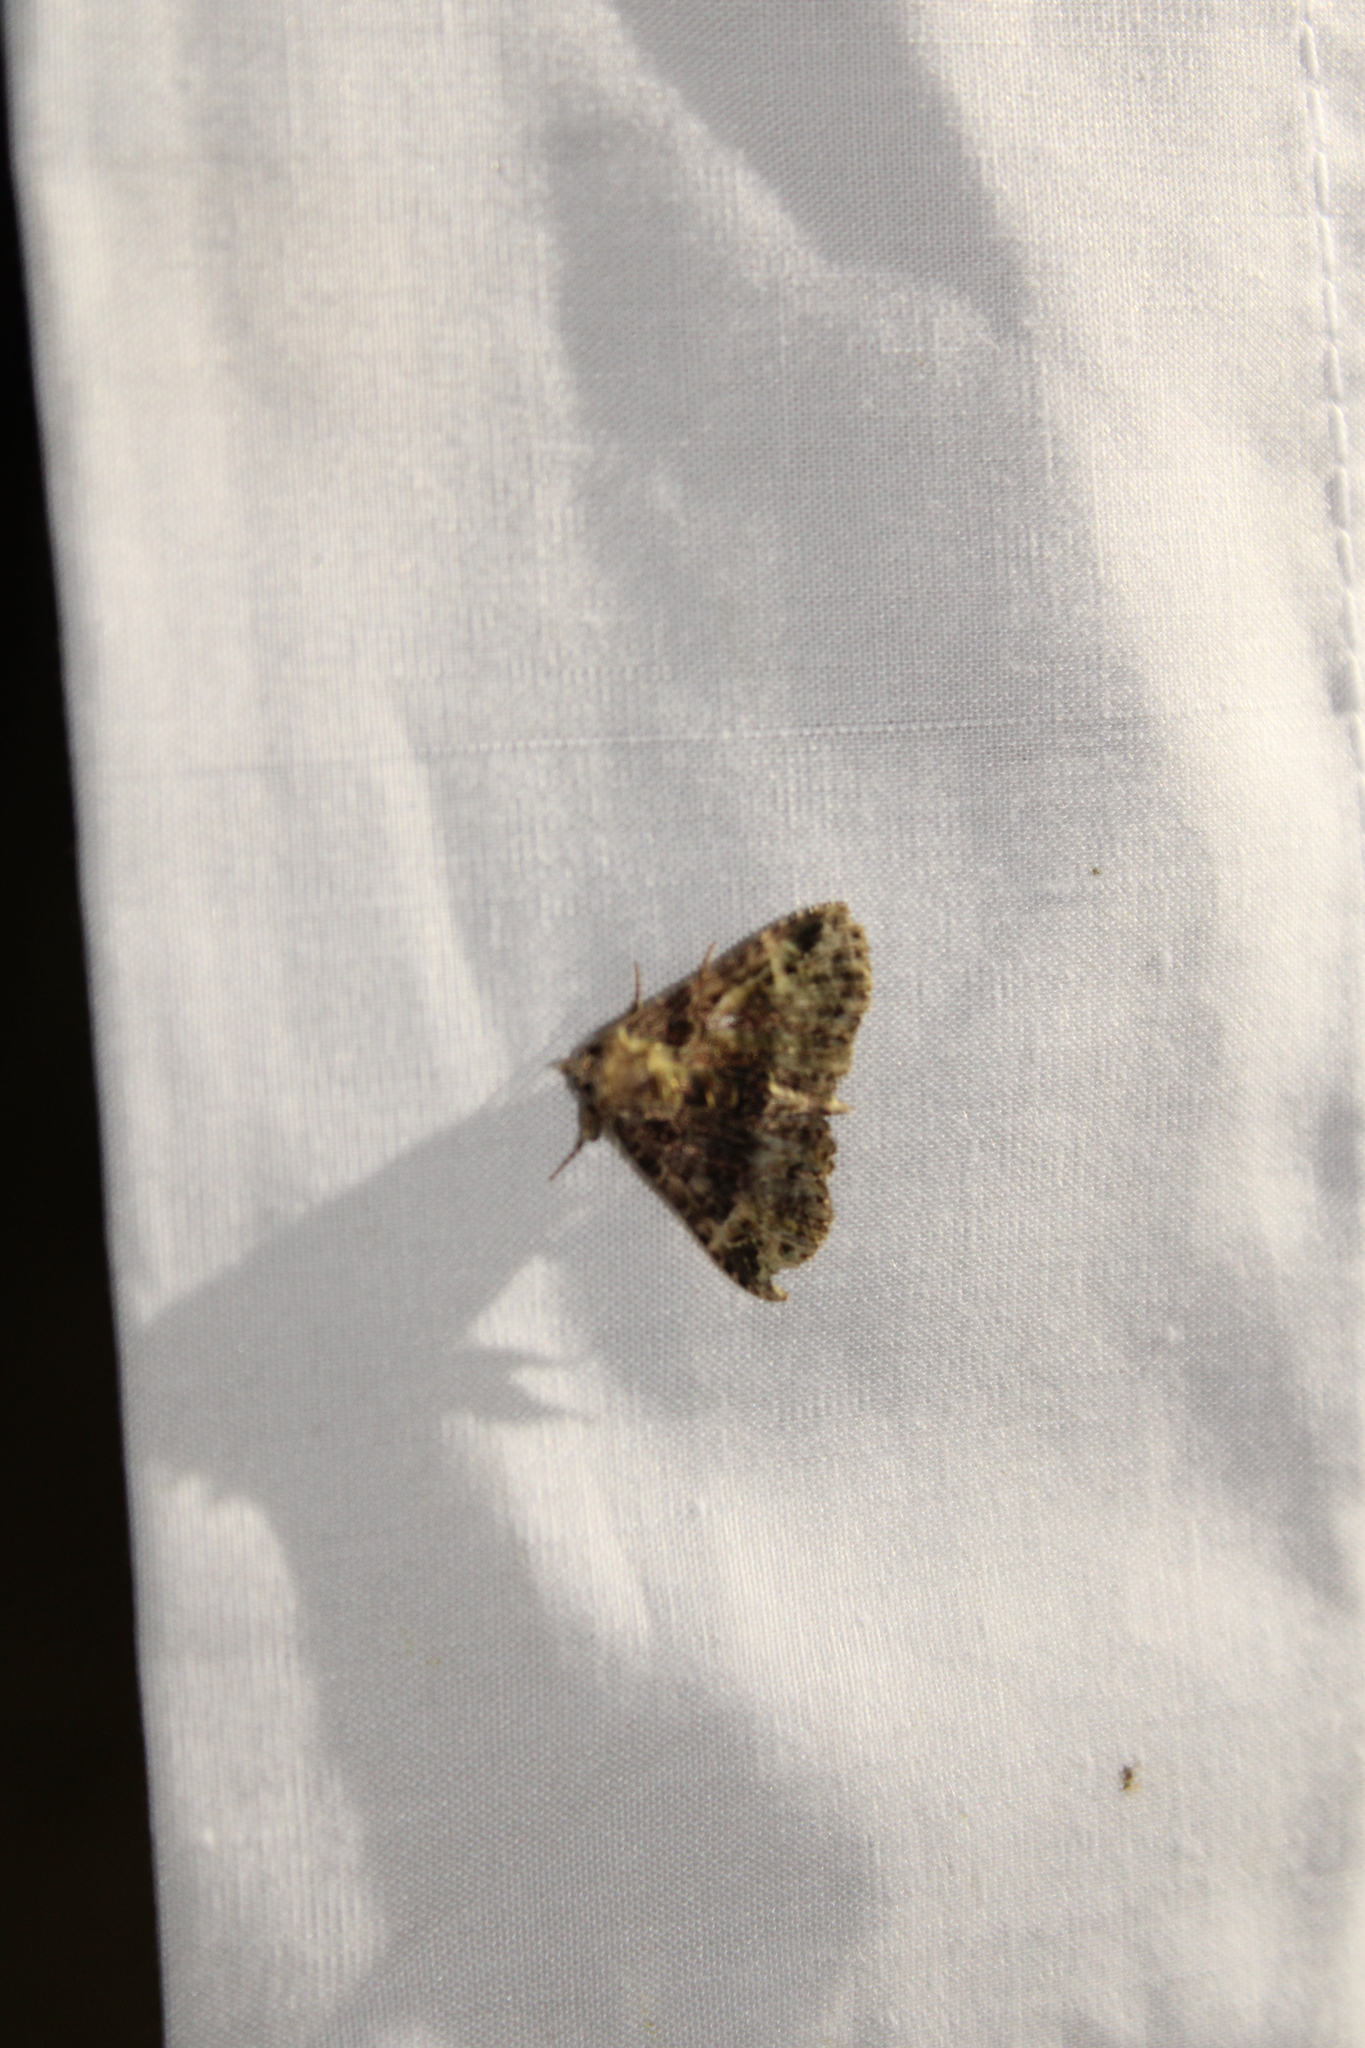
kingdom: Animalia
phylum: Arthropoda
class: Insecta
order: Lepidoptera
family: Erebidae
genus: Metalectra
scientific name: Metalectra discalis
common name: Common fungus moth
